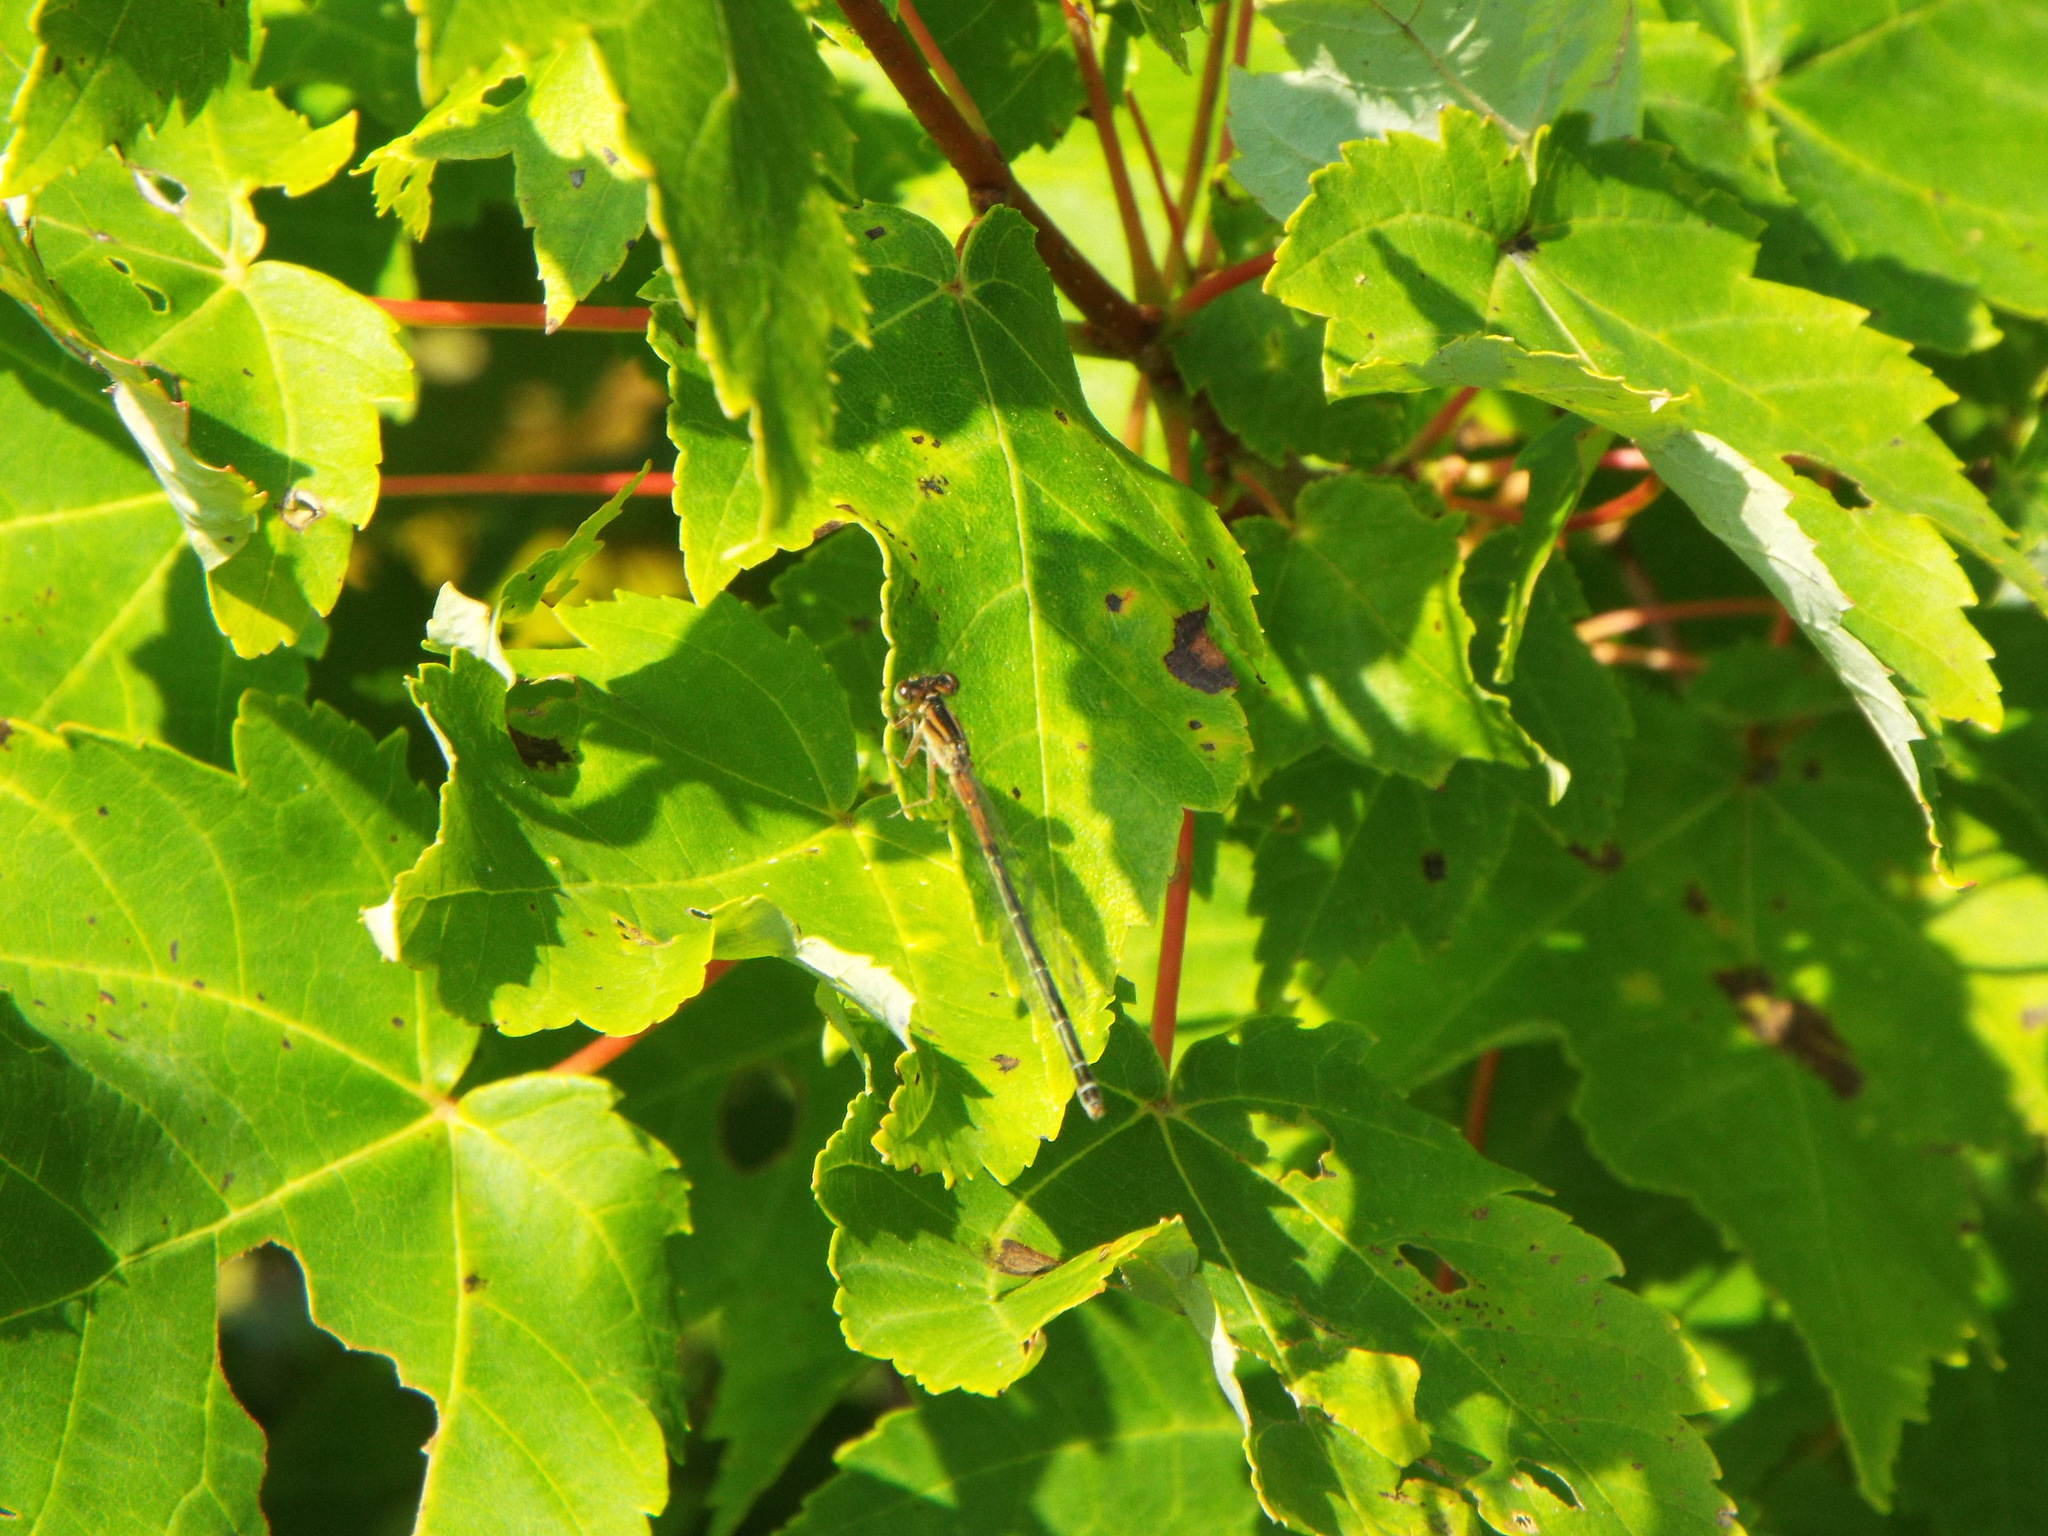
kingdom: Animalia
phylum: Arthropoda
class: Insecta
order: Odonata
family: Coenagrionidae
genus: Ischnura
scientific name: Ischnura verticalis
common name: Eastern forktail
